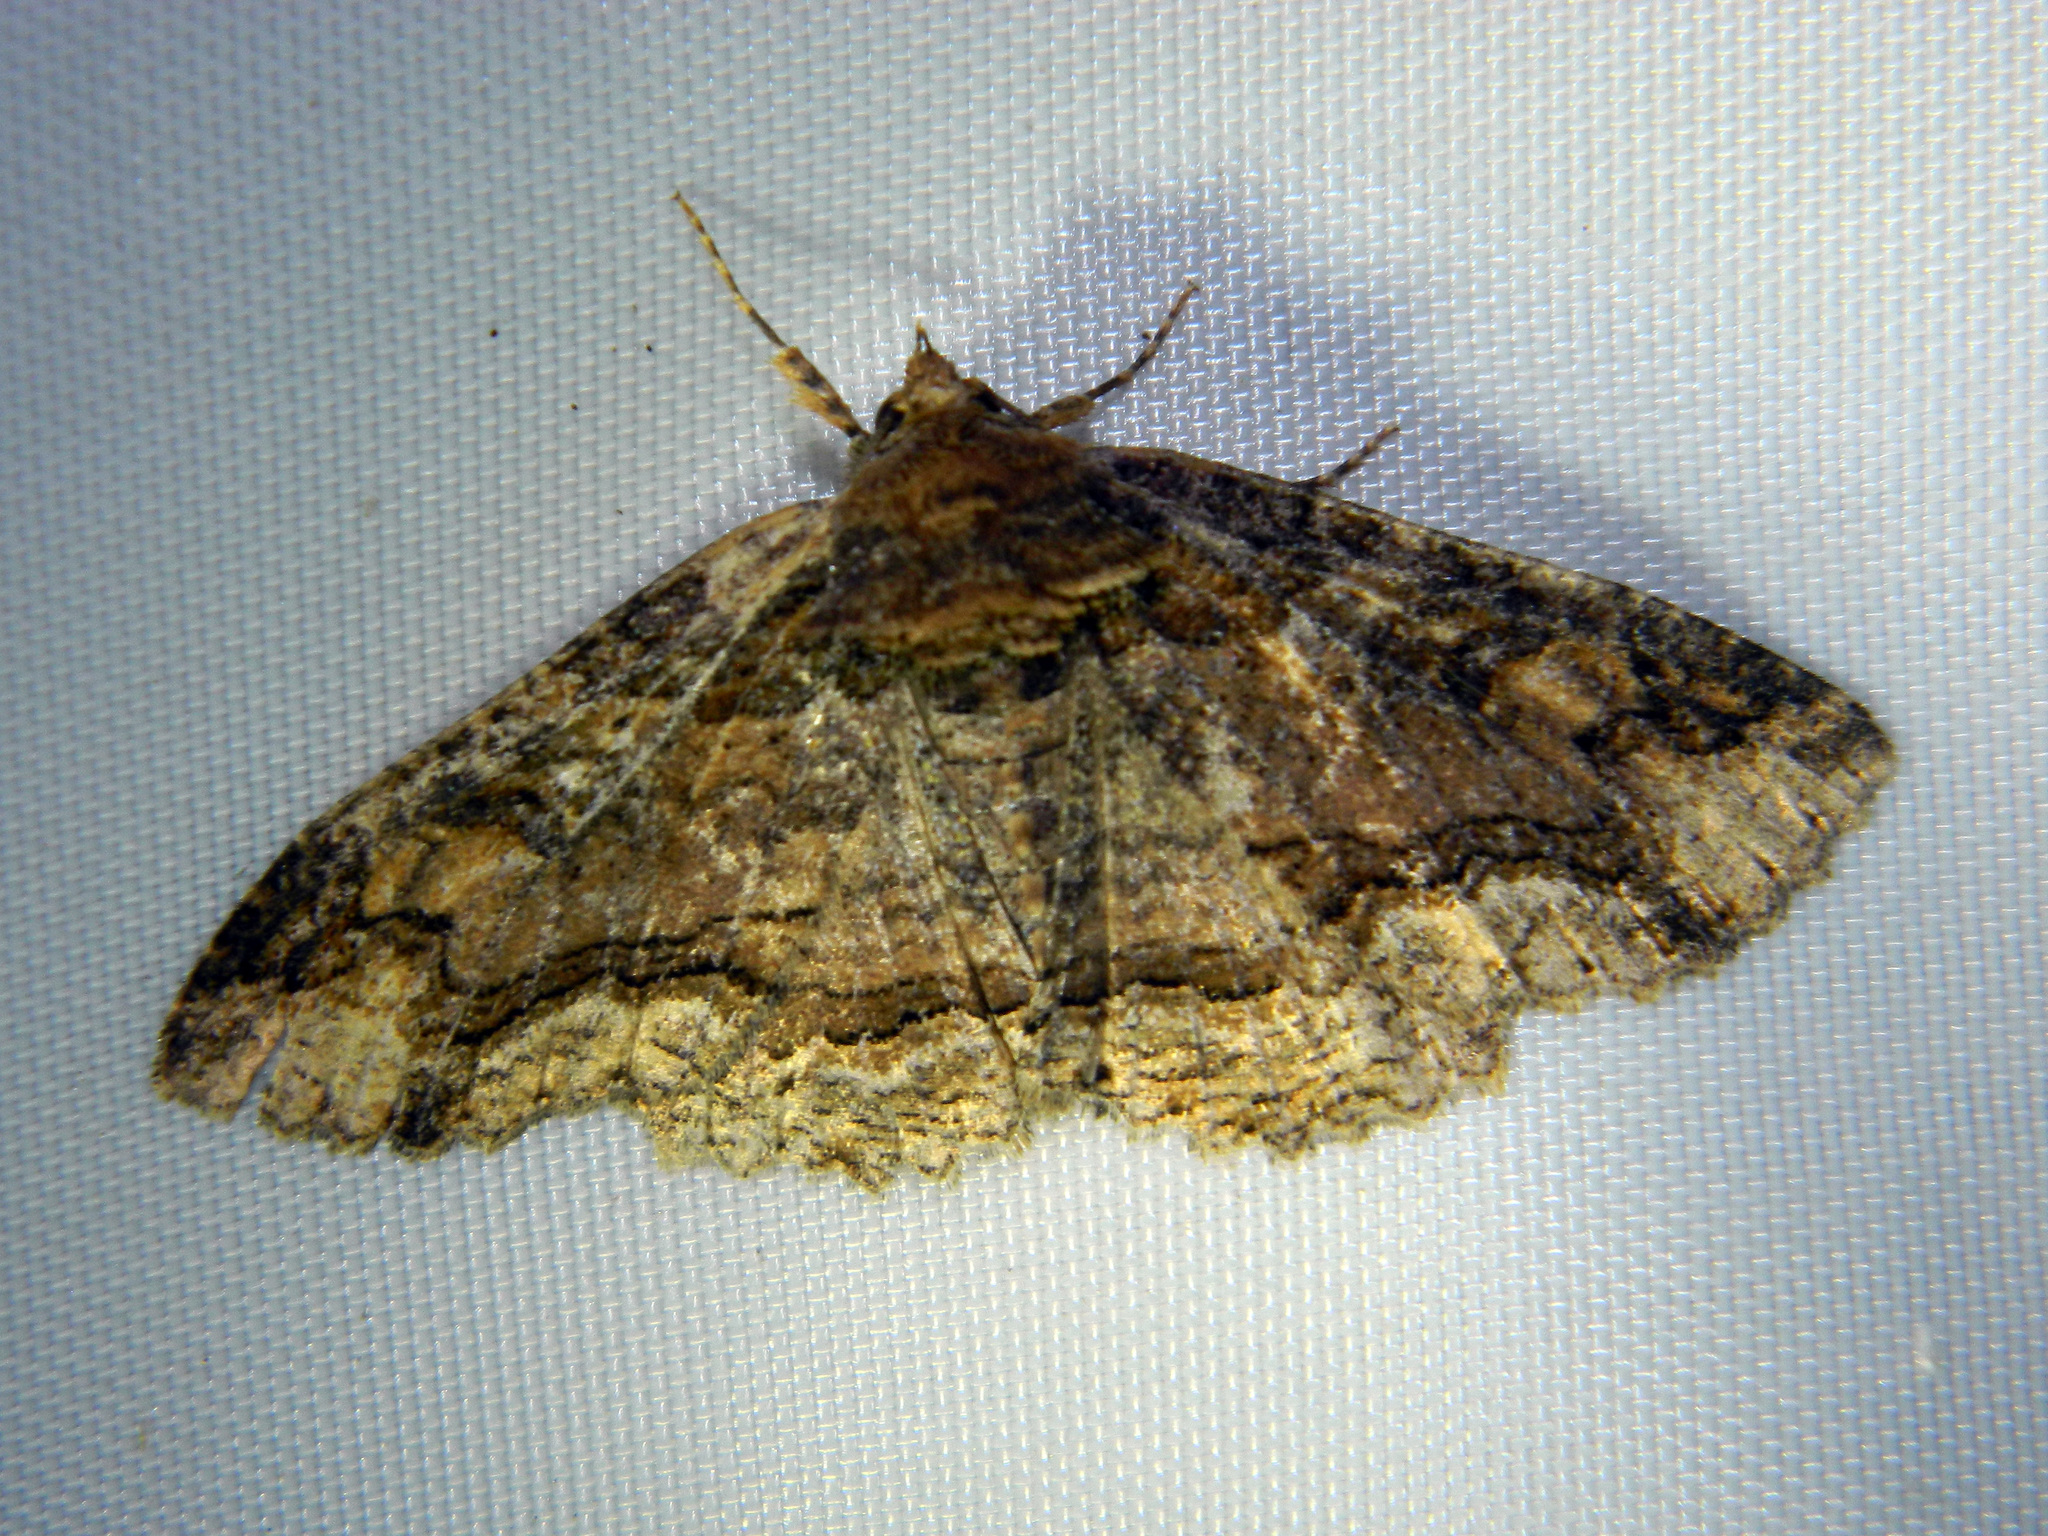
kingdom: Animalia
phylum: Arthropoda
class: Insecta
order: Lepidoptera
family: Erebidae
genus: Zale
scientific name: Zale minerea
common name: Colorful zale moth
